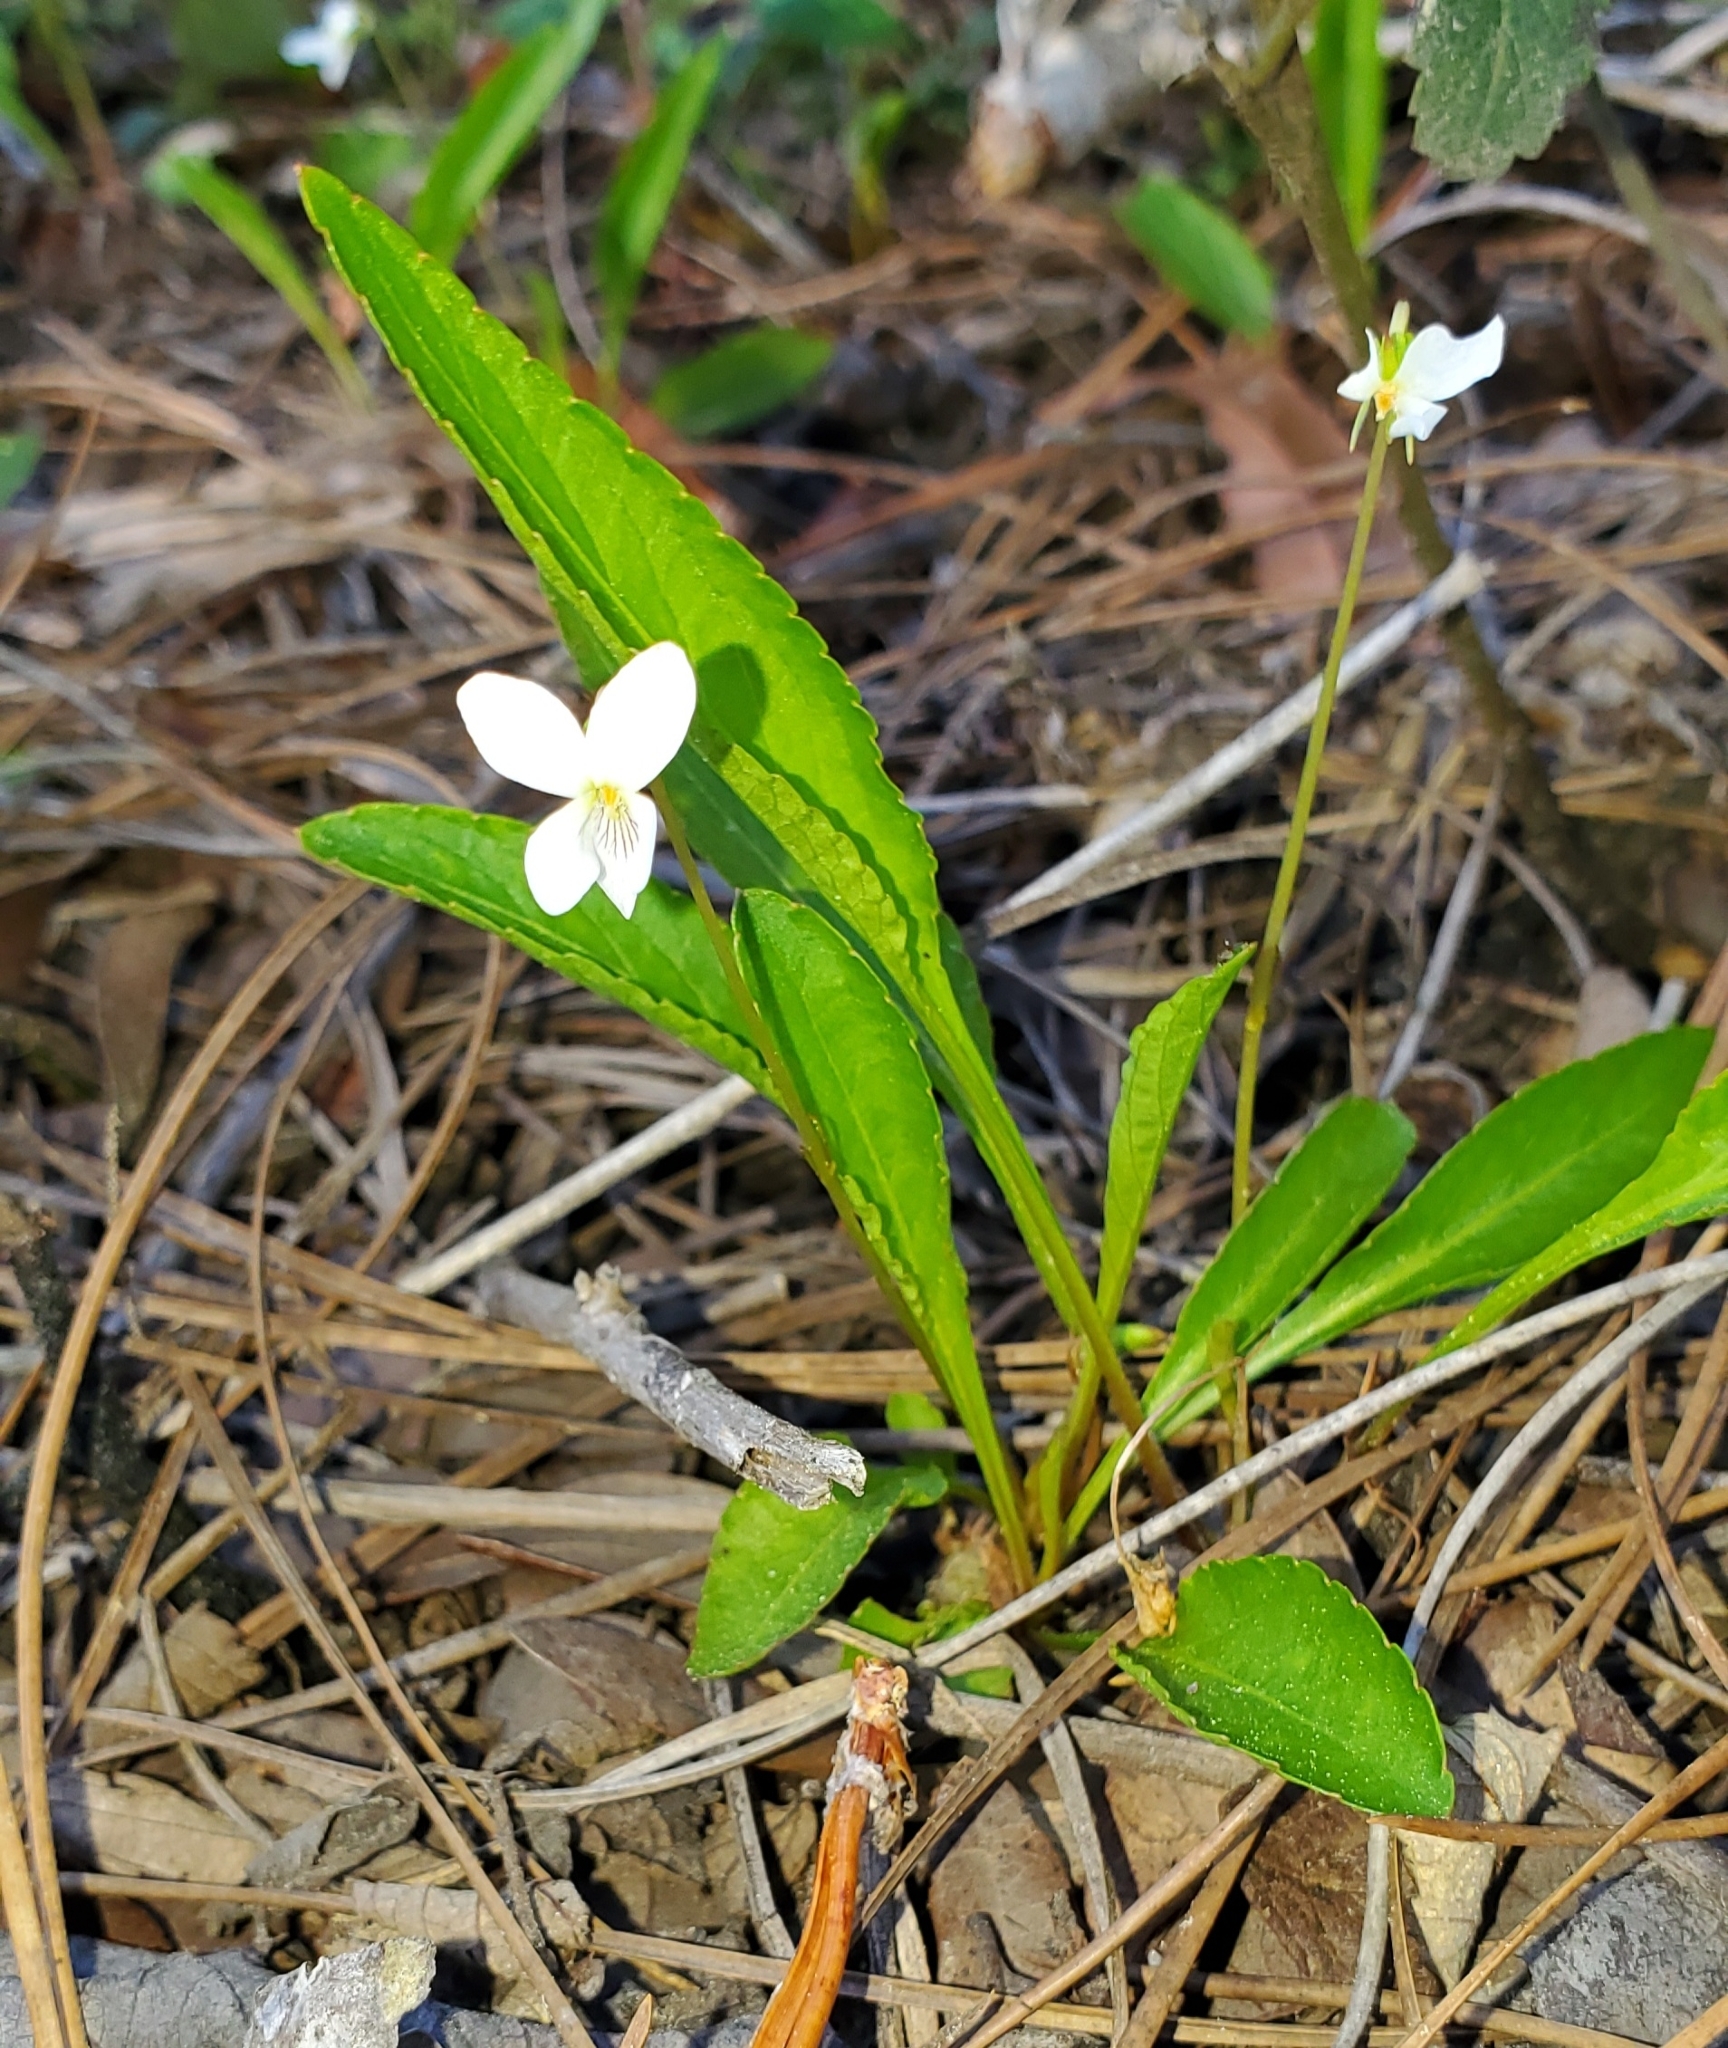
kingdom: Plantae
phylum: Tracheophyta
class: Magnoliopsida
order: Malpighiales
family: Violaceae
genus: Viola
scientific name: Viola lanceolata
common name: Bog white violet
